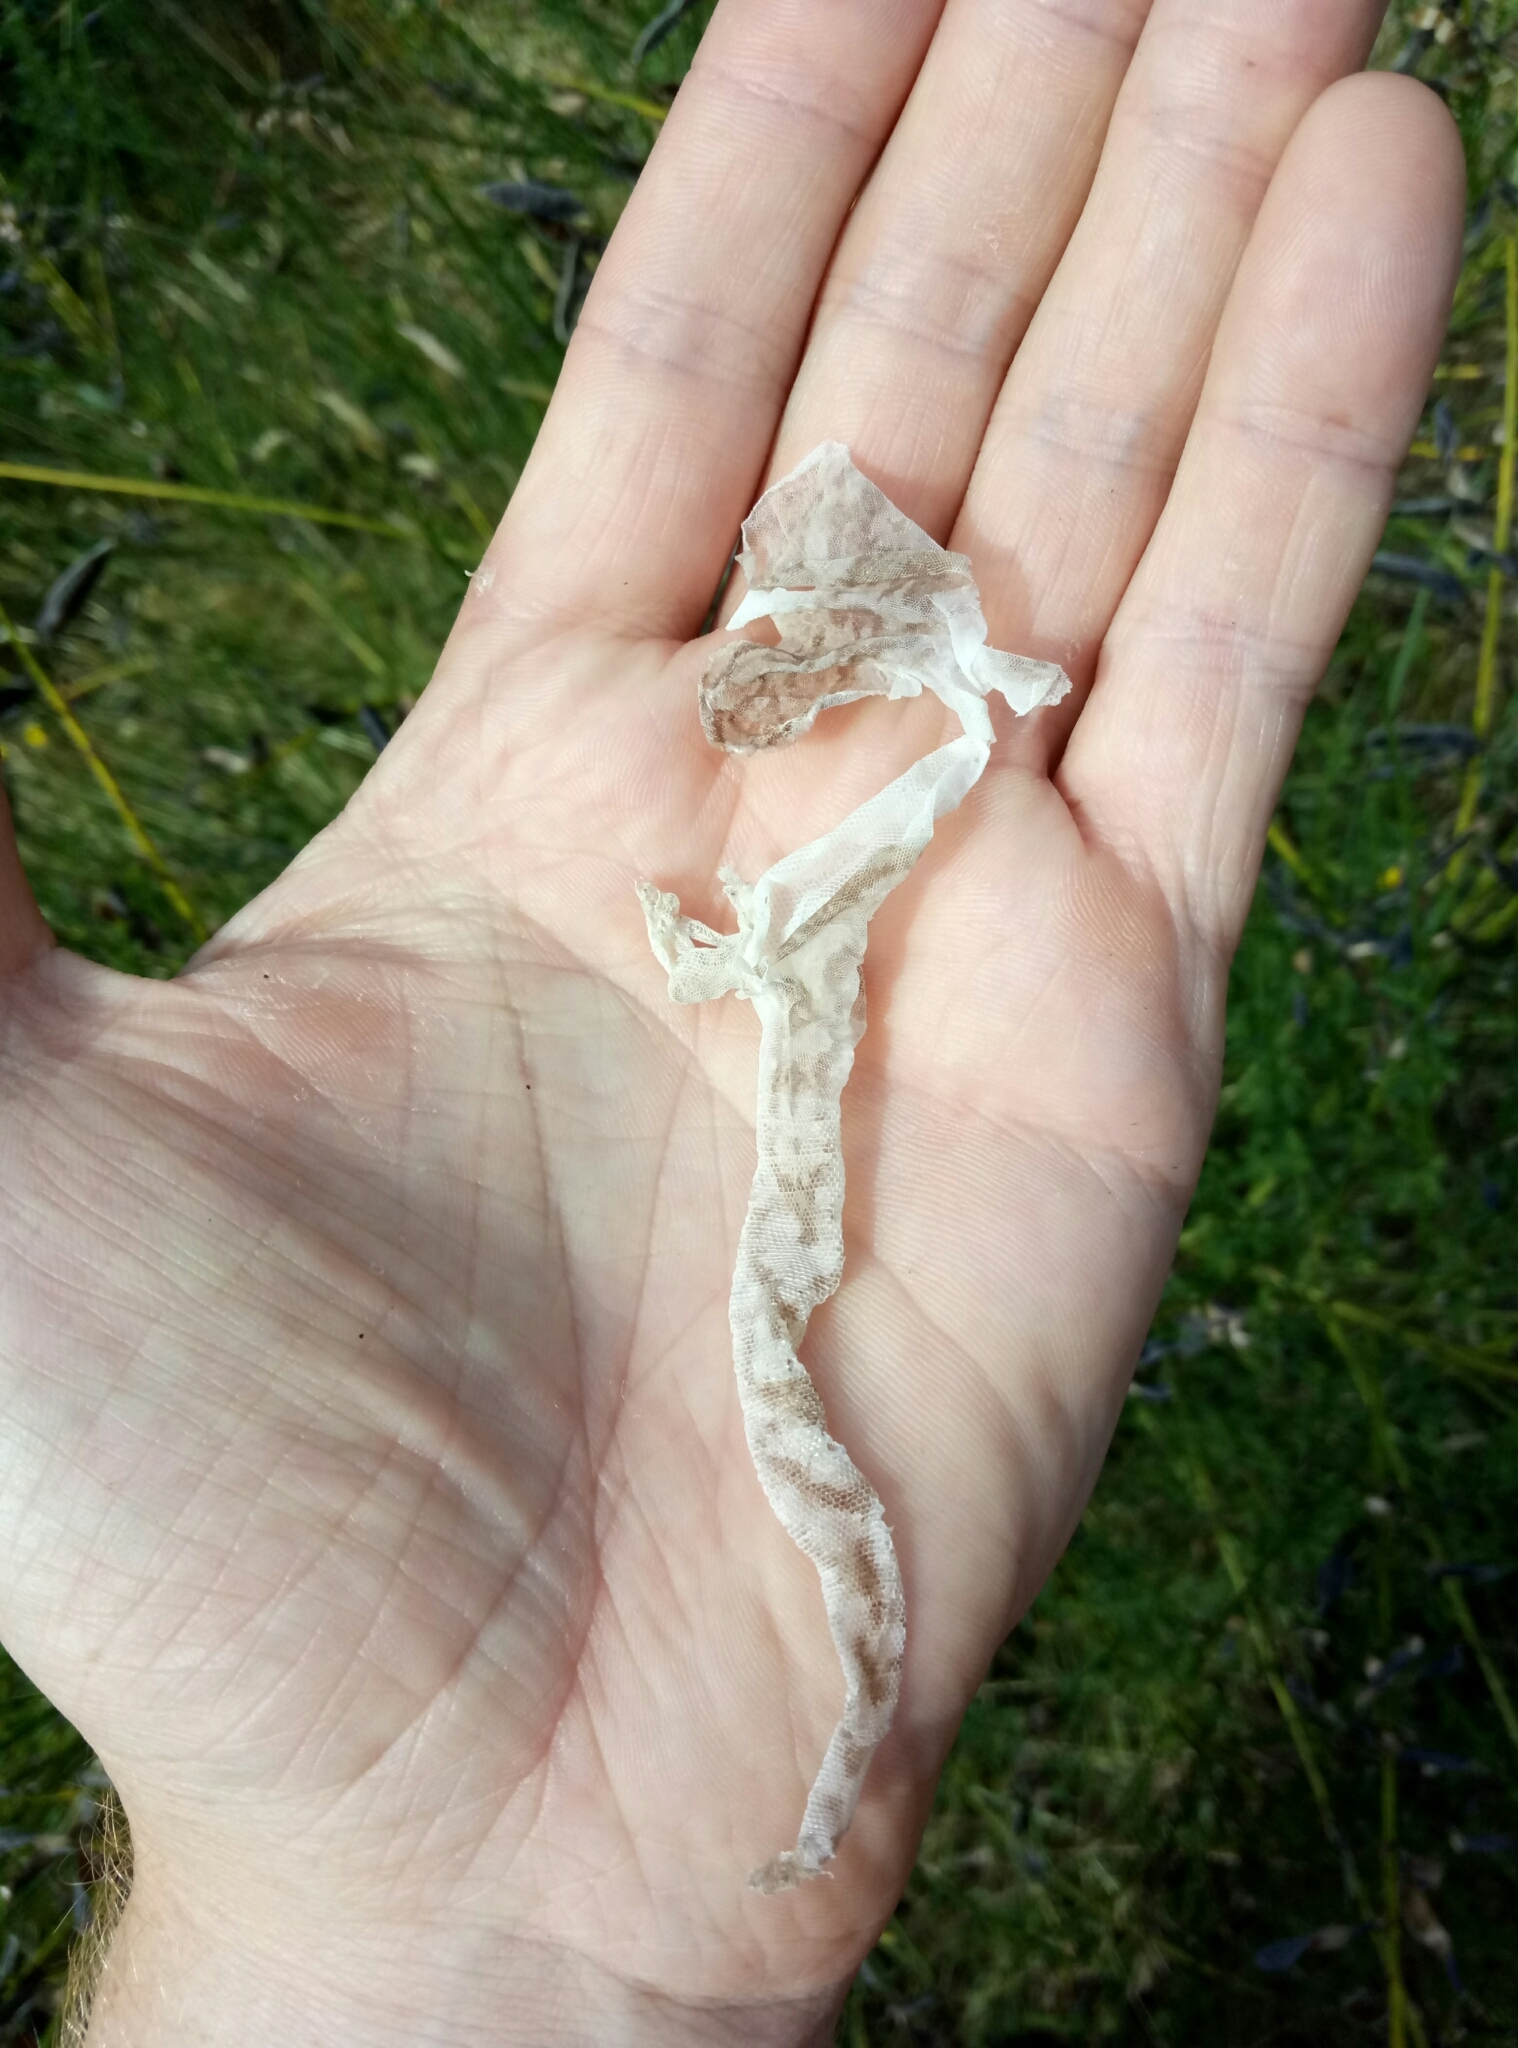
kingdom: Animalia
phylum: Chordata
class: Squamata
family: Diplodactylidae
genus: Woodworthia
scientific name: Woodworthia maculata
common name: Raukawa gecko
